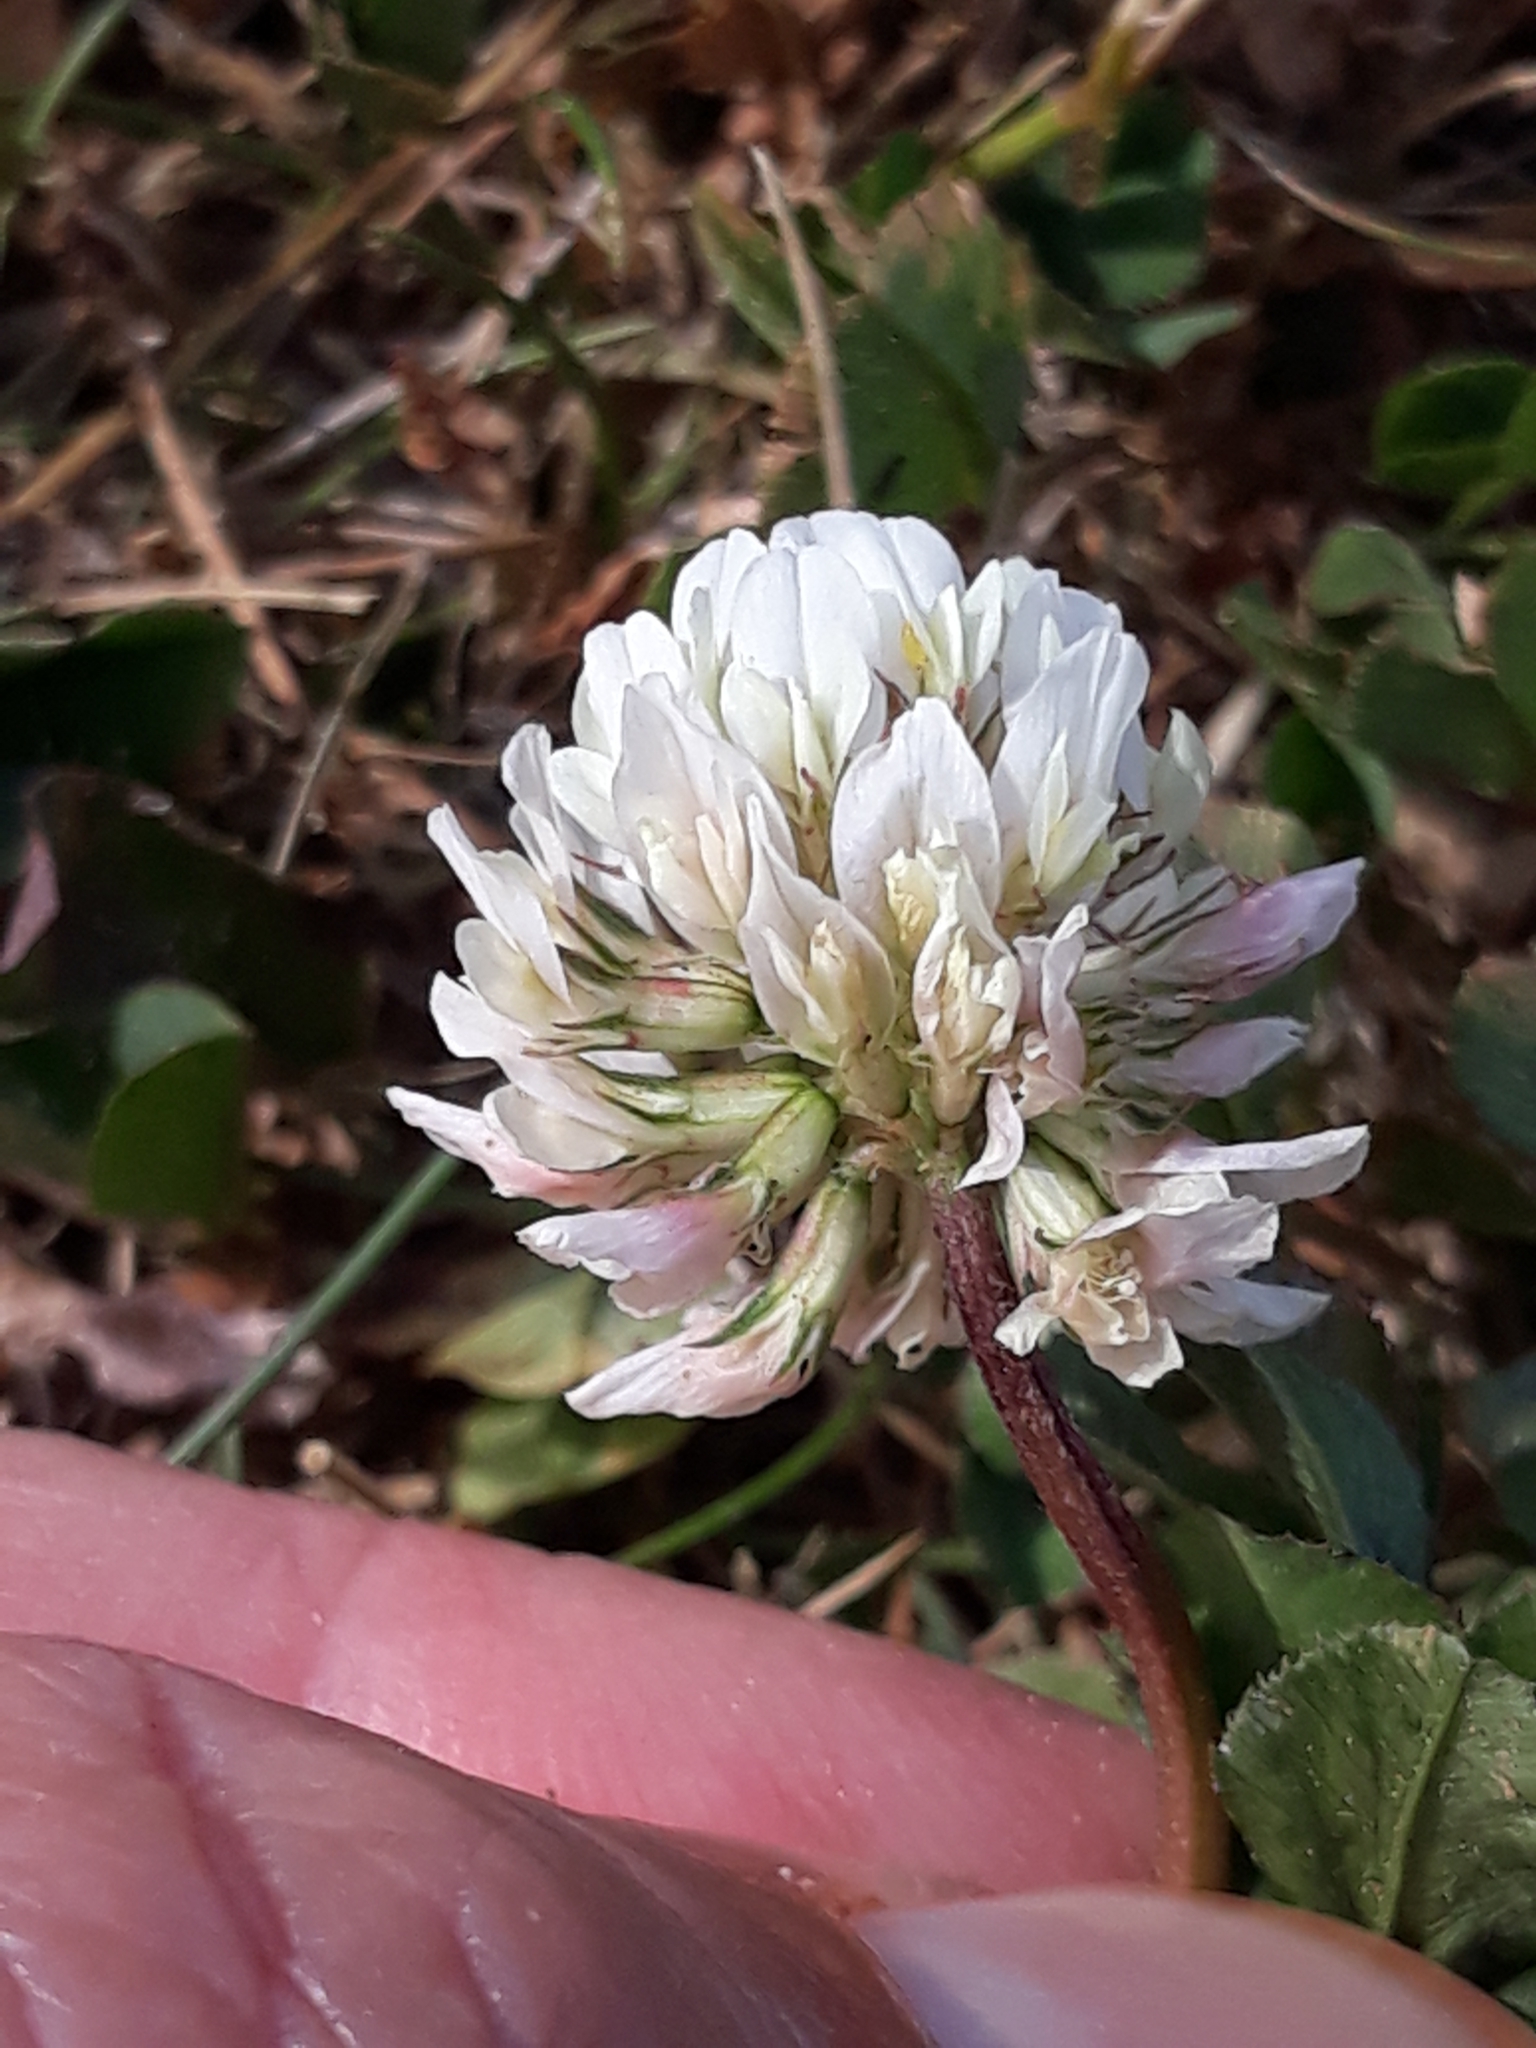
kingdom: Plantae
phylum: Tracheophyta
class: Magnoliopsida
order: Fabales
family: Fabaceae
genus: Trifolium
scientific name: Trifolium repens
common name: White clover
